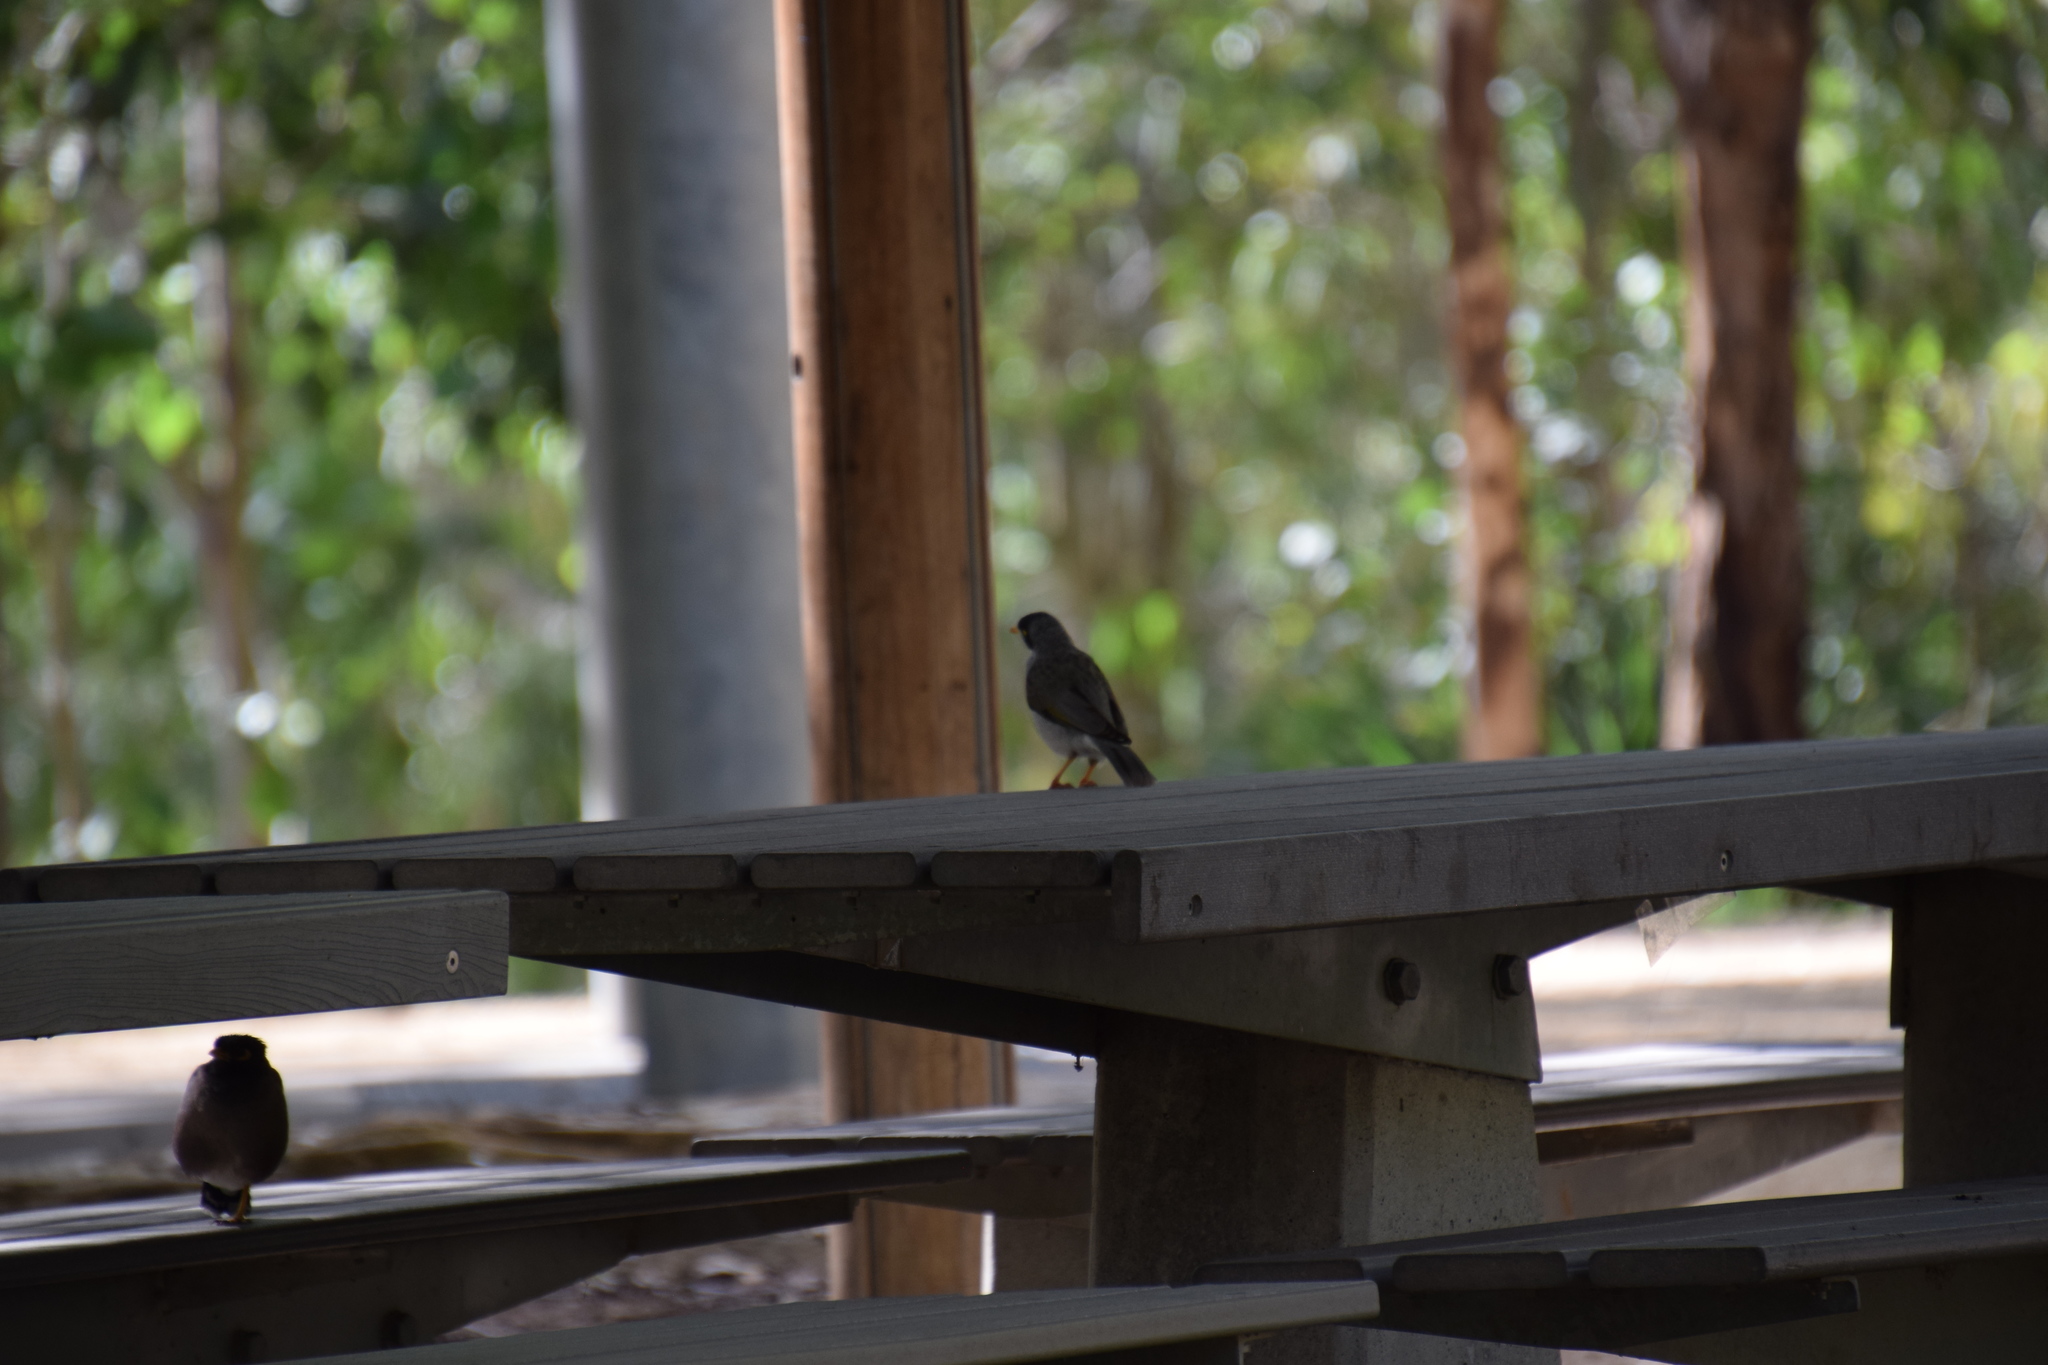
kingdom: Animalia
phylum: Chordata
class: Aves
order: Passeriformes
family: Meliphagidae
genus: Manorina
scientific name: Manorina melanocephala
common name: Noisy miner
